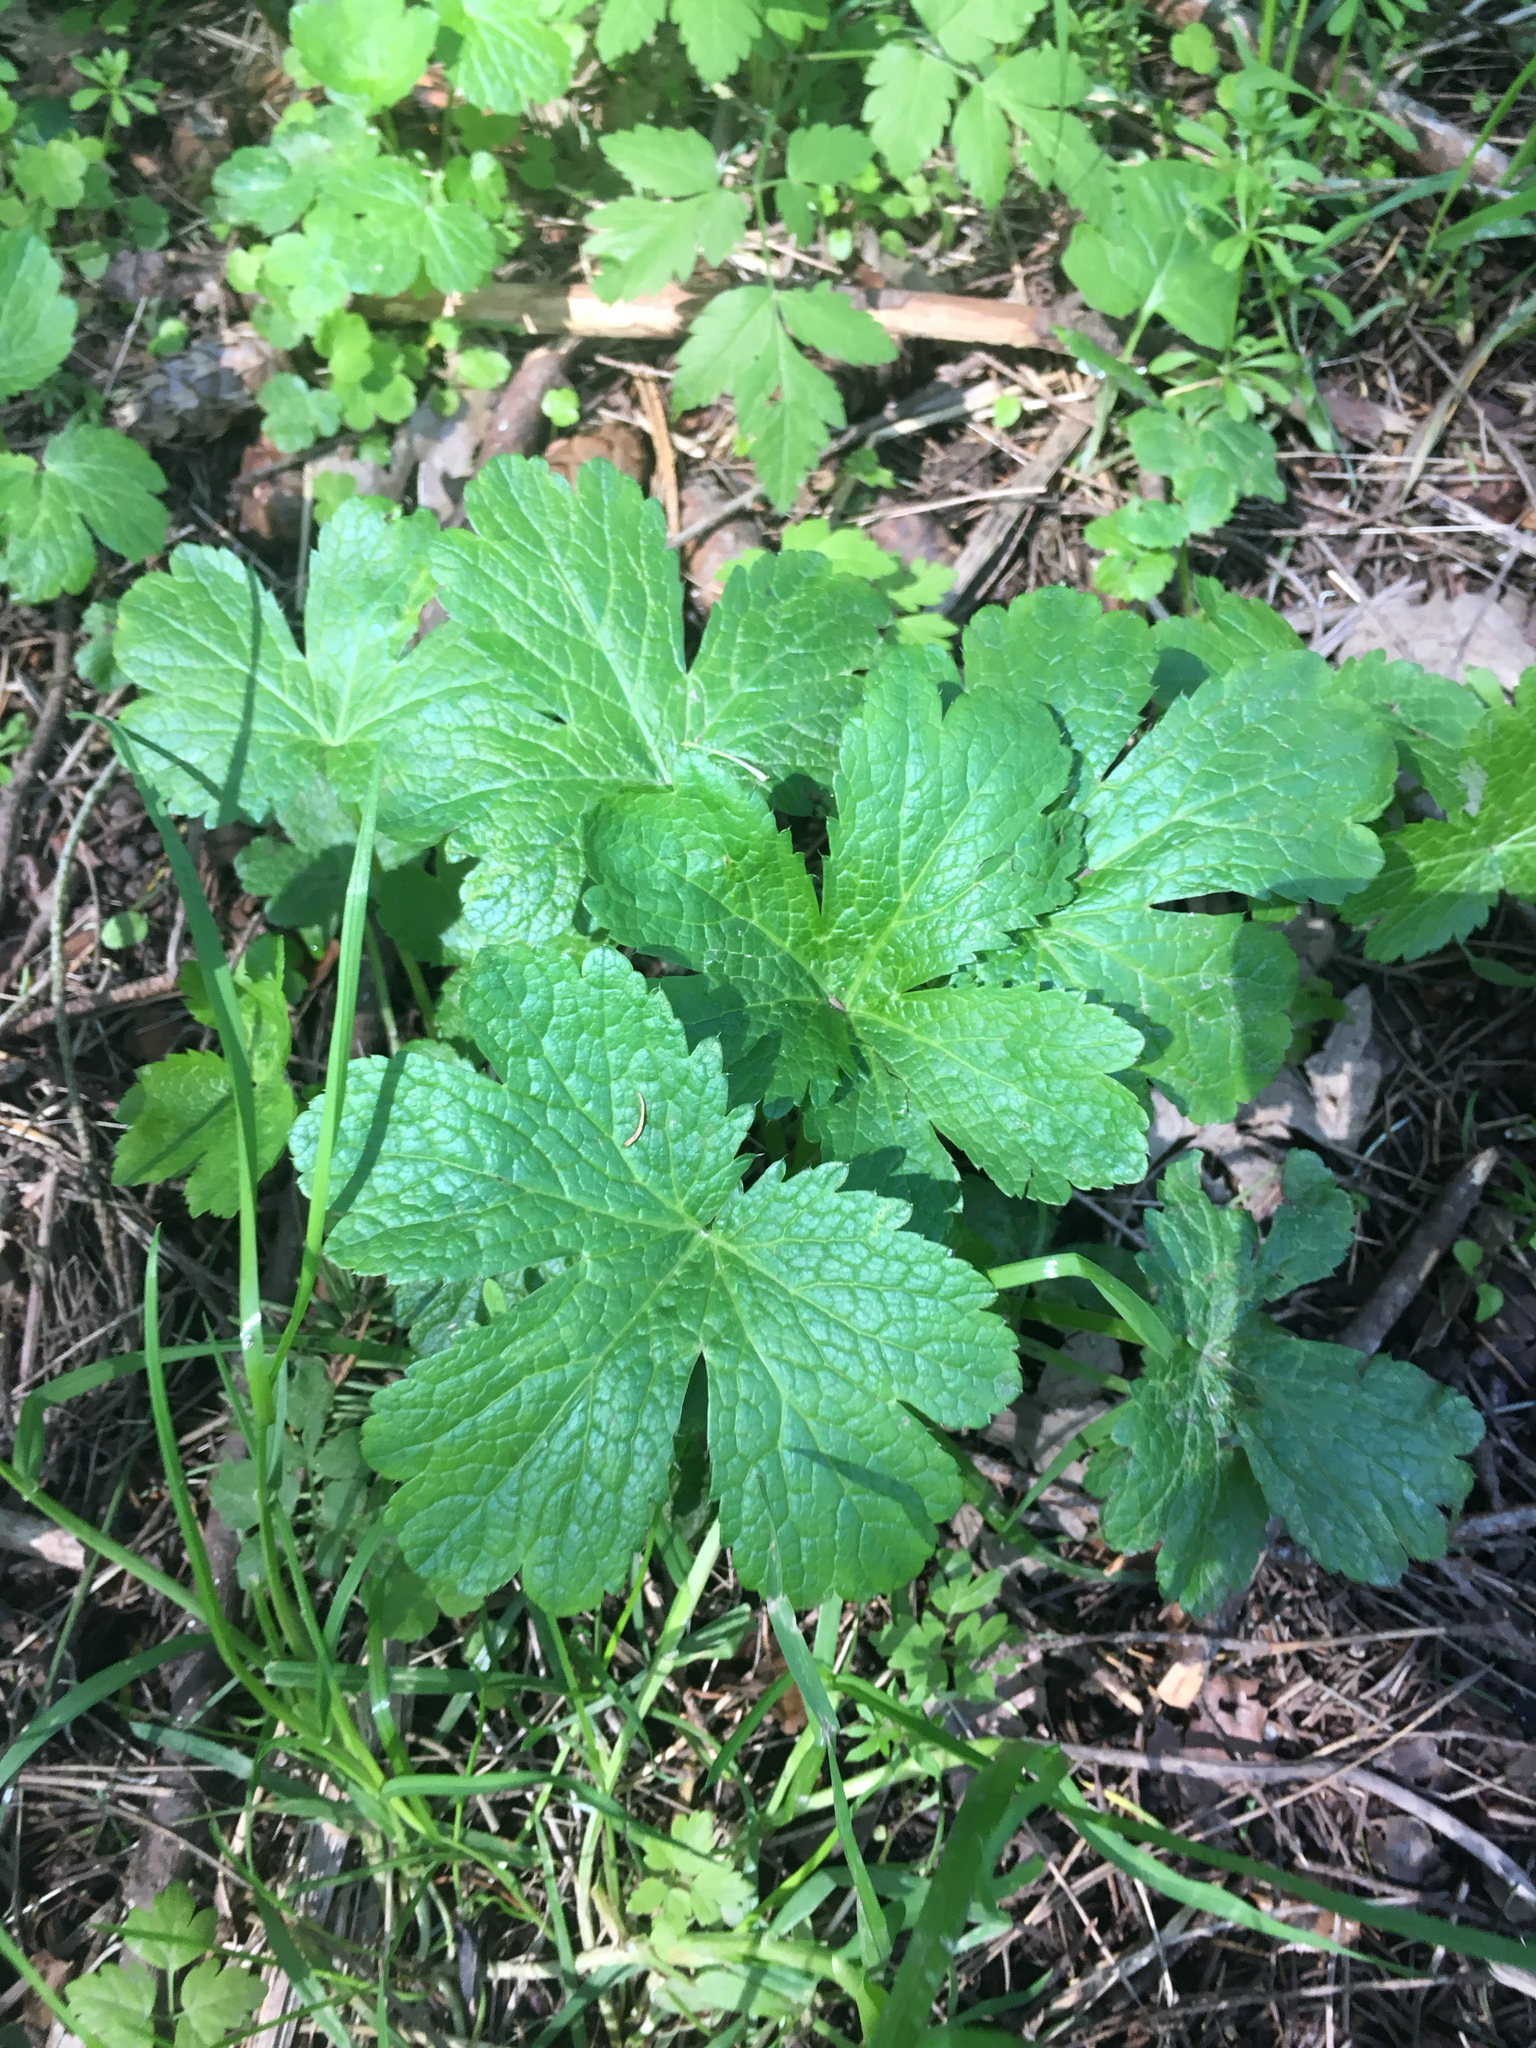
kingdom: Plantae
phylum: Tracheophyta
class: Magnoliopsida
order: Apiales
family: Apiaceae
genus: Sanicula
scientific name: Sanicula crassicaulis
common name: Western snakeroot
